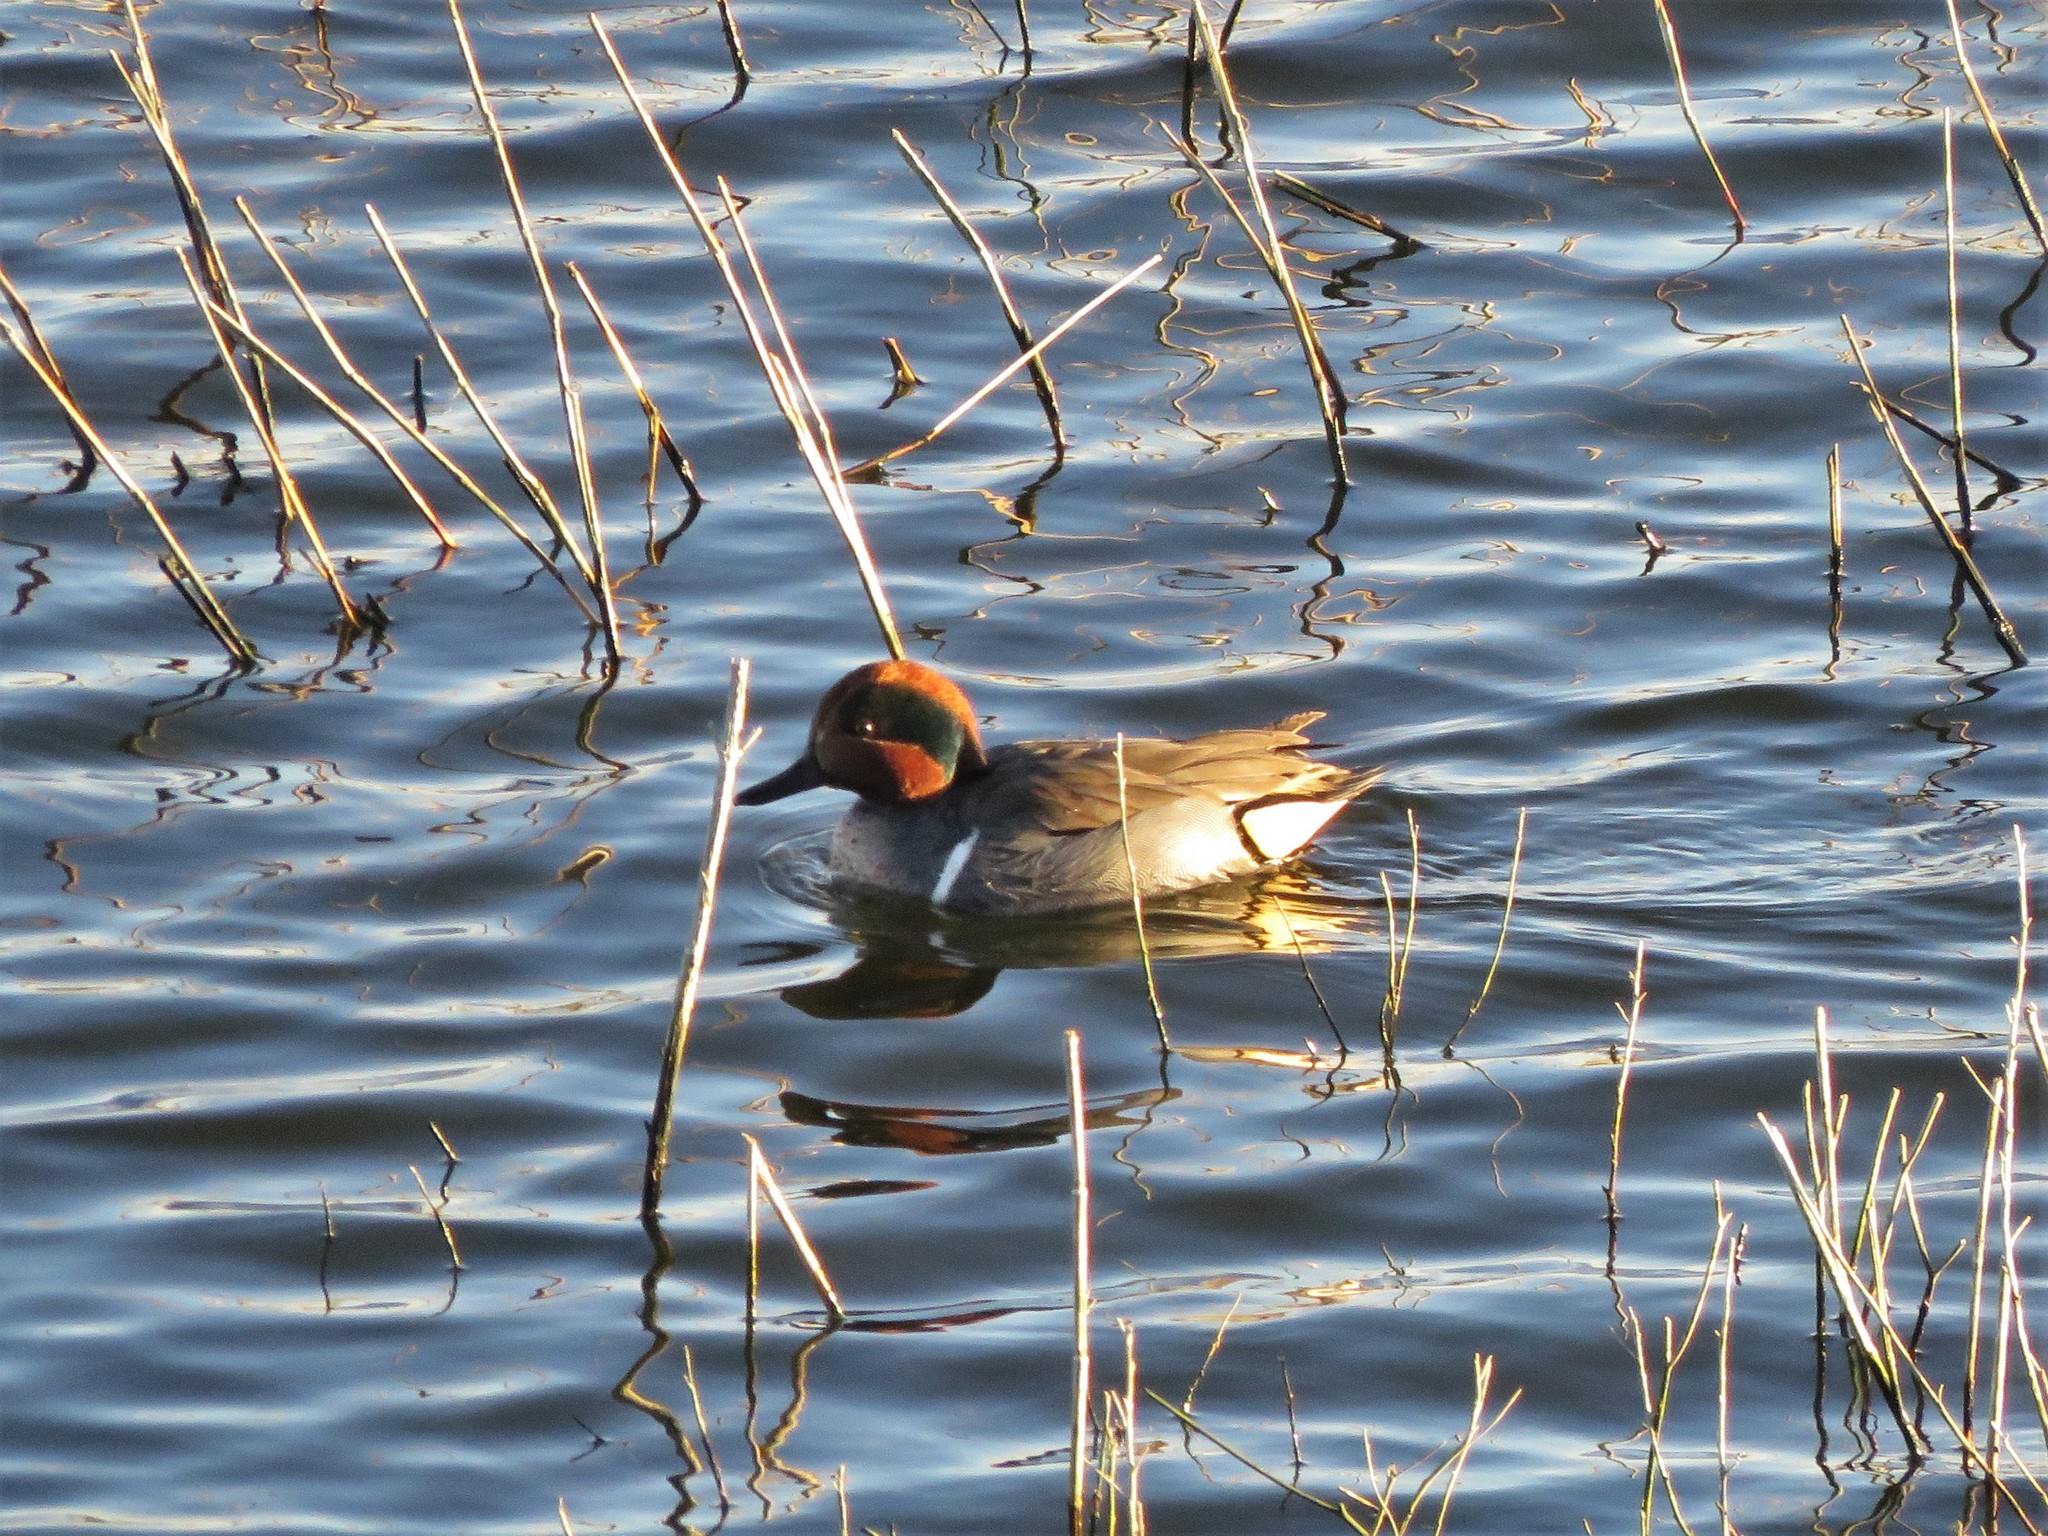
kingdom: Animalia
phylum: Chordata
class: Aves
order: Anseriformes
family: Anatidae
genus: Anas
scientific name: Anas crecca
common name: Eurasian teal
